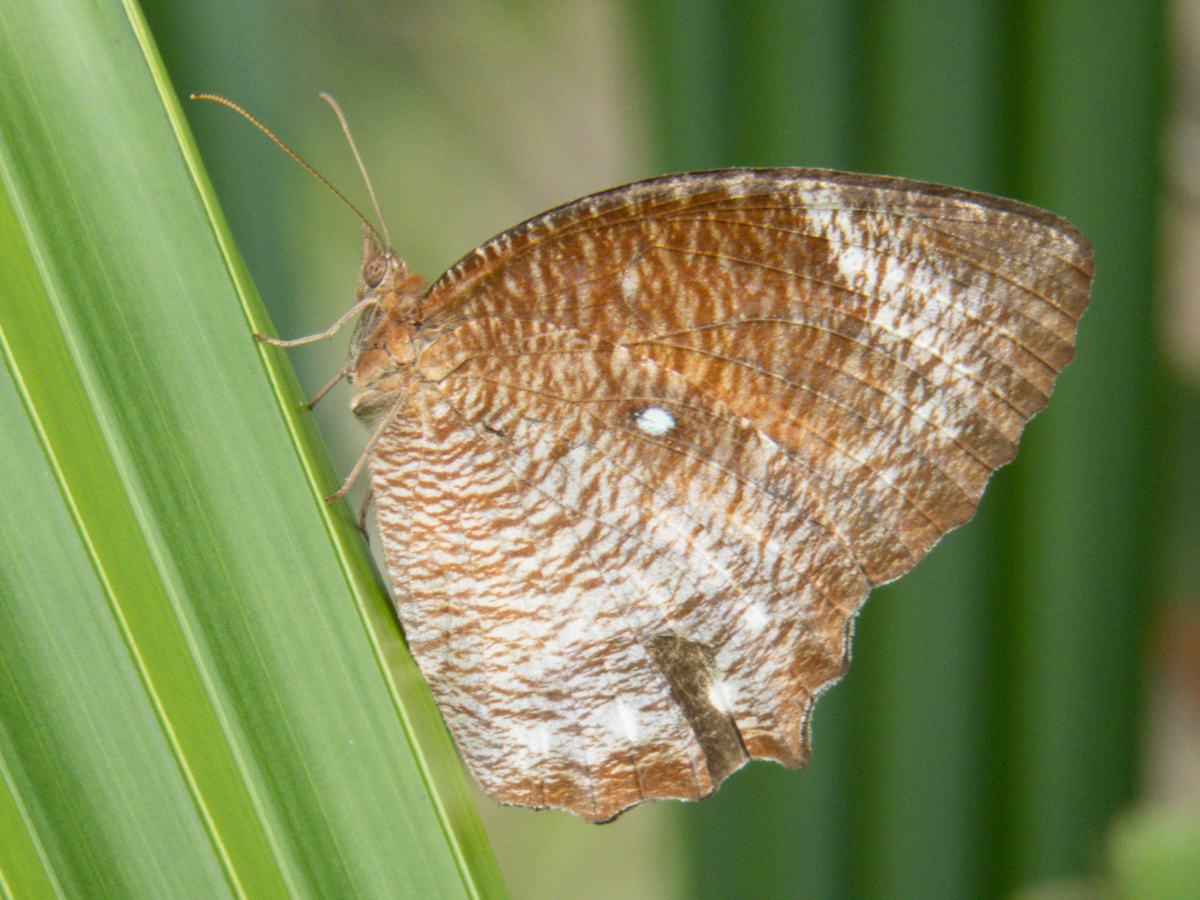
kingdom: Animalia
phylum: Arthropoda
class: Insecta
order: Lepidoptera
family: Nymphalidae
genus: Elymnias
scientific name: Elymnias hypermnestra
